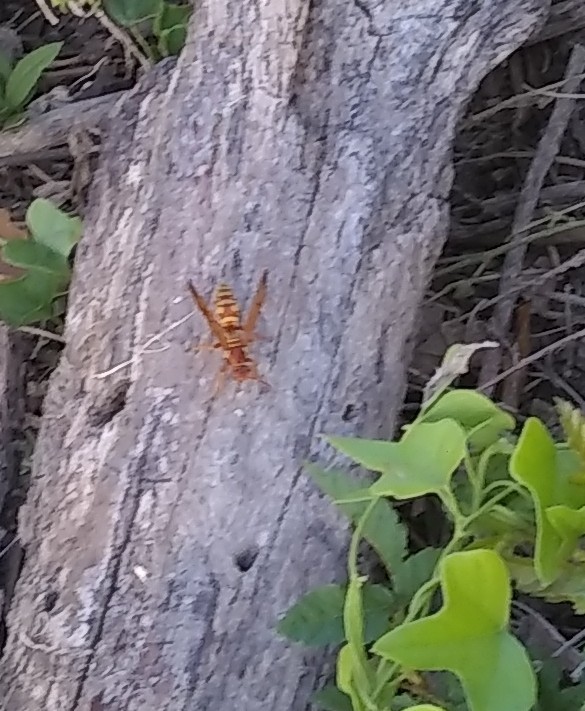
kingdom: Animalia
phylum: Arthropoda
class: Insecta
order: Hymenoptera
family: Eumenidae
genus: Polistes
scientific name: Polistes apachus
